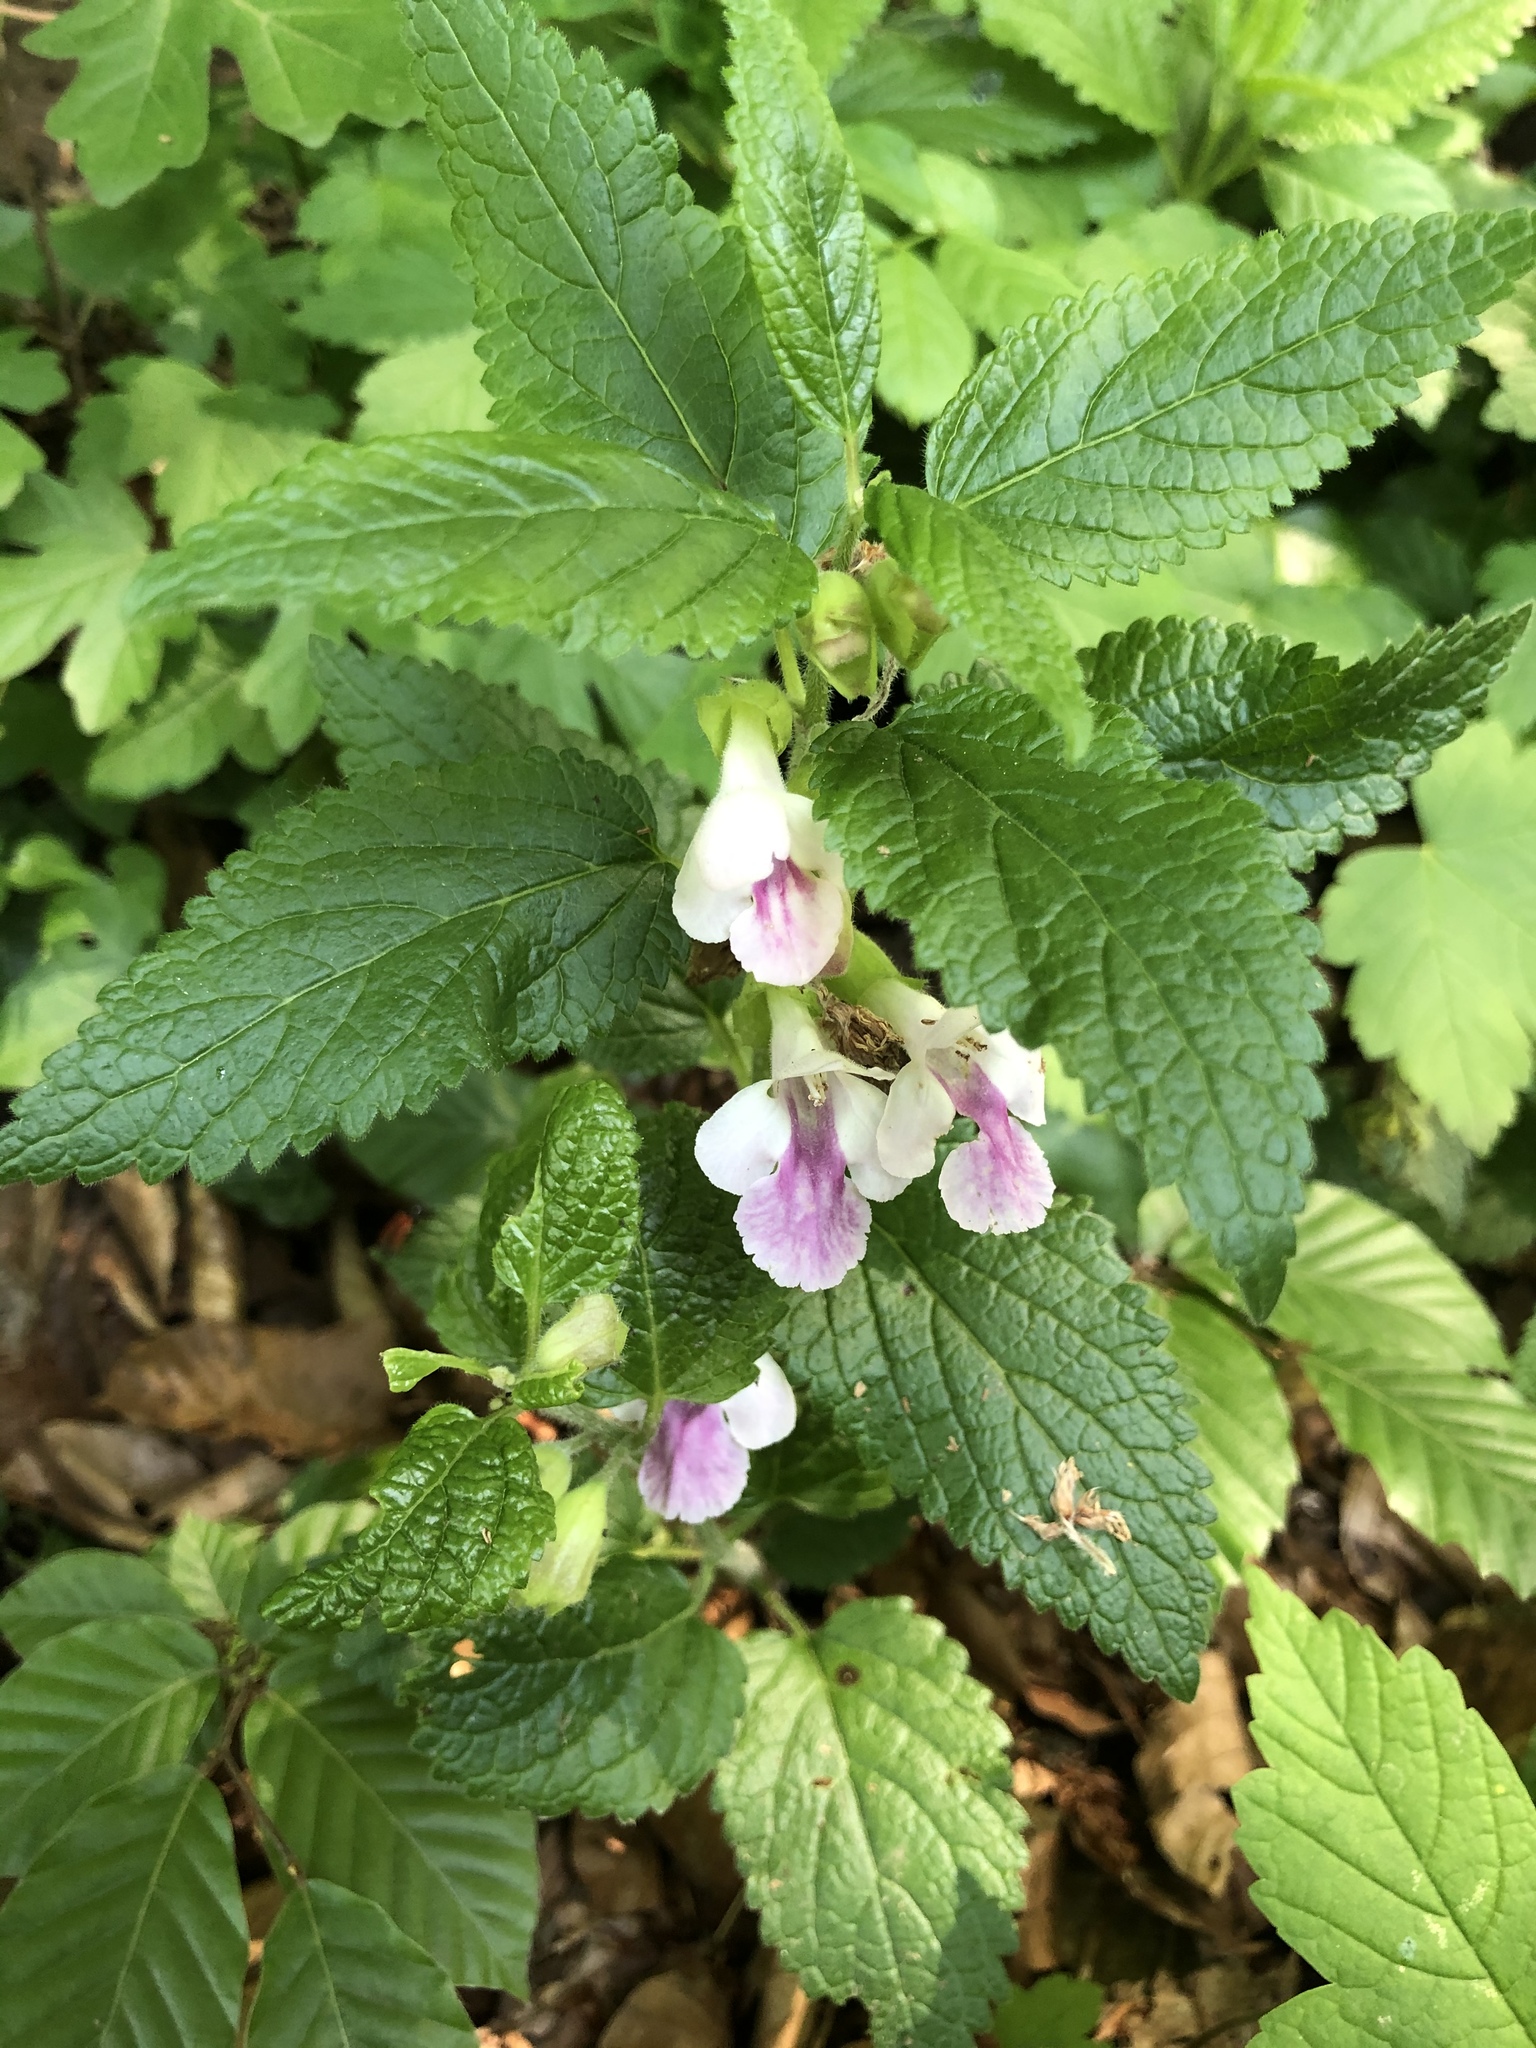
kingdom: Plantae
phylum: Tracheophyta
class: Magnoliopsida
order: Lamiales
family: Lamiaceae
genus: Melittis
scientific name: Melittis melissophyllum
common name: Bastard balm
